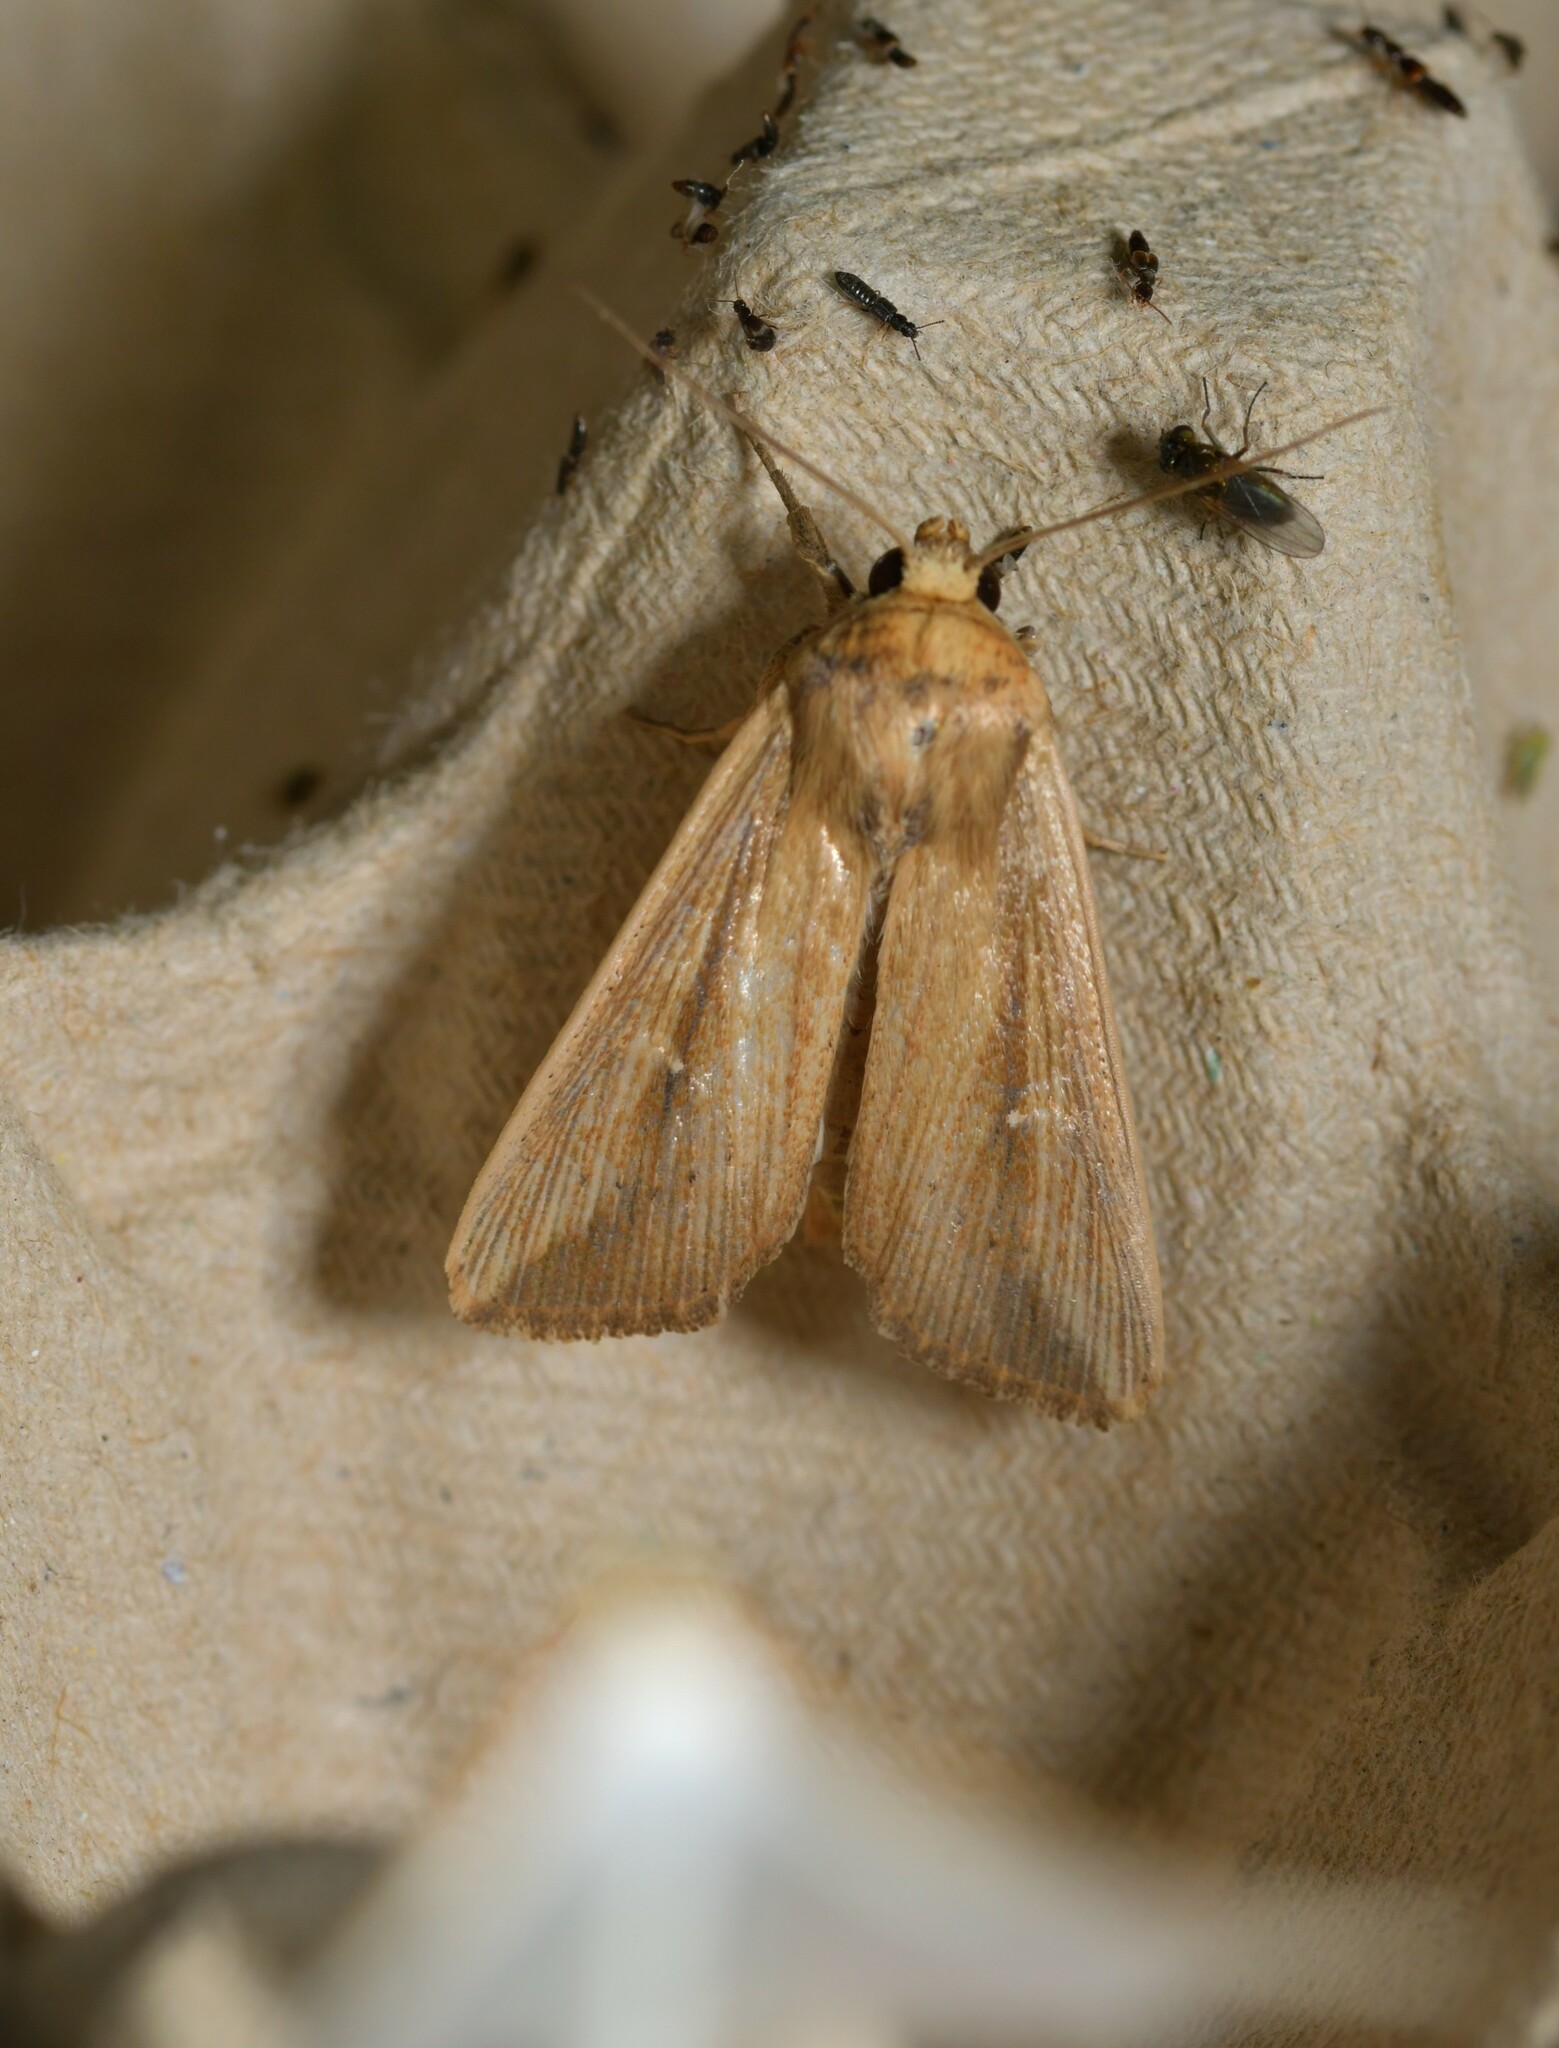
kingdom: Animalia
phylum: Arthropoda
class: Insecta
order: Lepidoptera
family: Noctuidae
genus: Leucania
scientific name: Leucania loreyi
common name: The cosmopolitan
